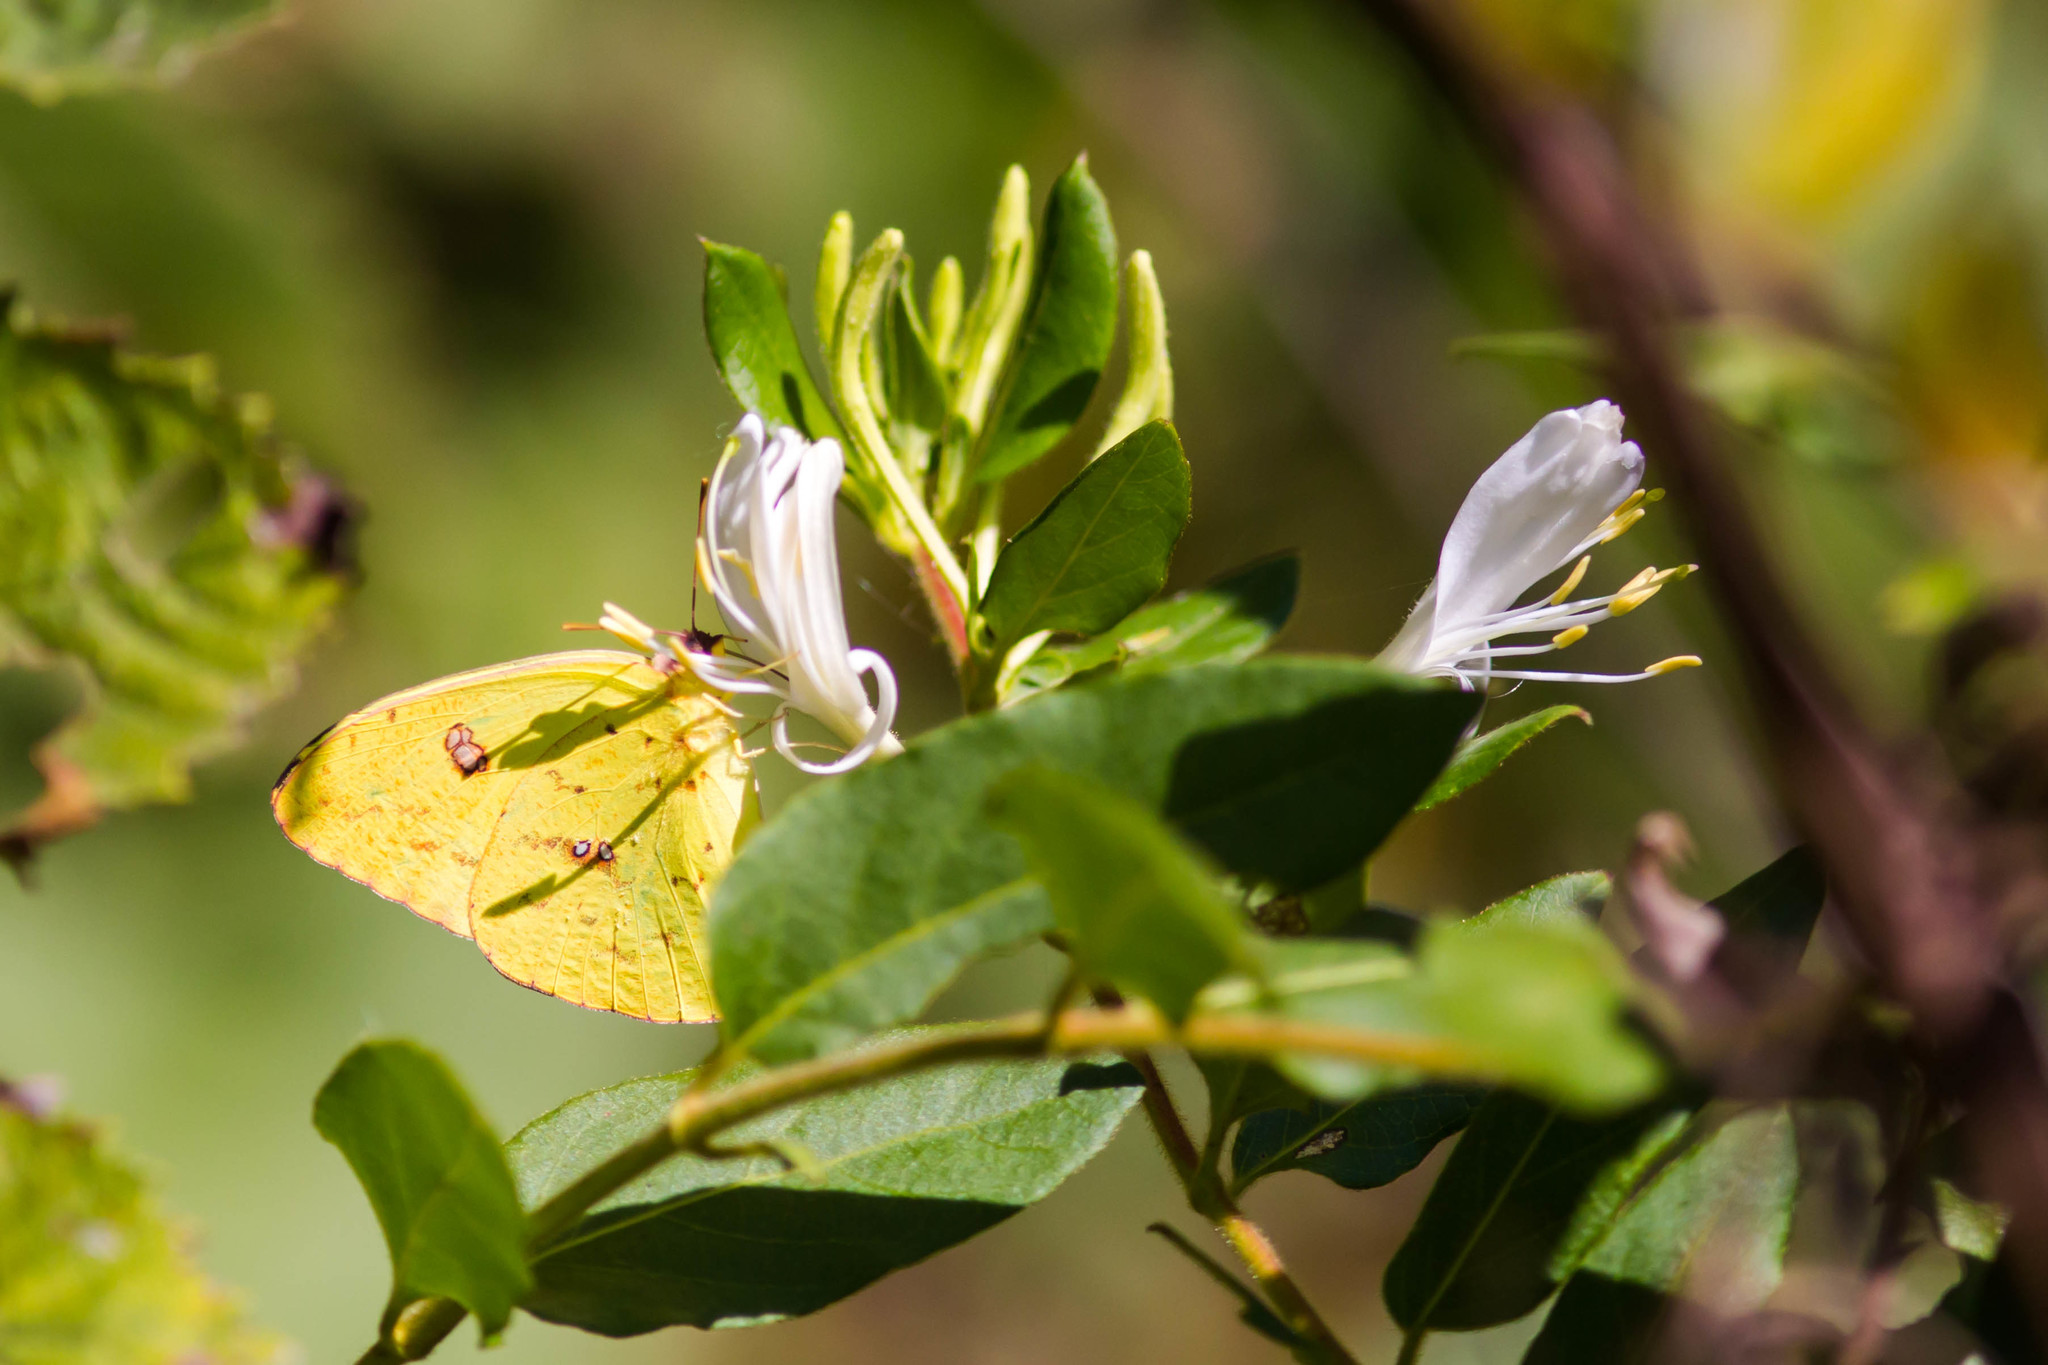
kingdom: Animalia
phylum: Arthropoda
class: Insecta
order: Lepidoptera
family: Pieridae
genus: Phoebis
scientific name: Phoebis sennae
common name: Cloudless sulphur
